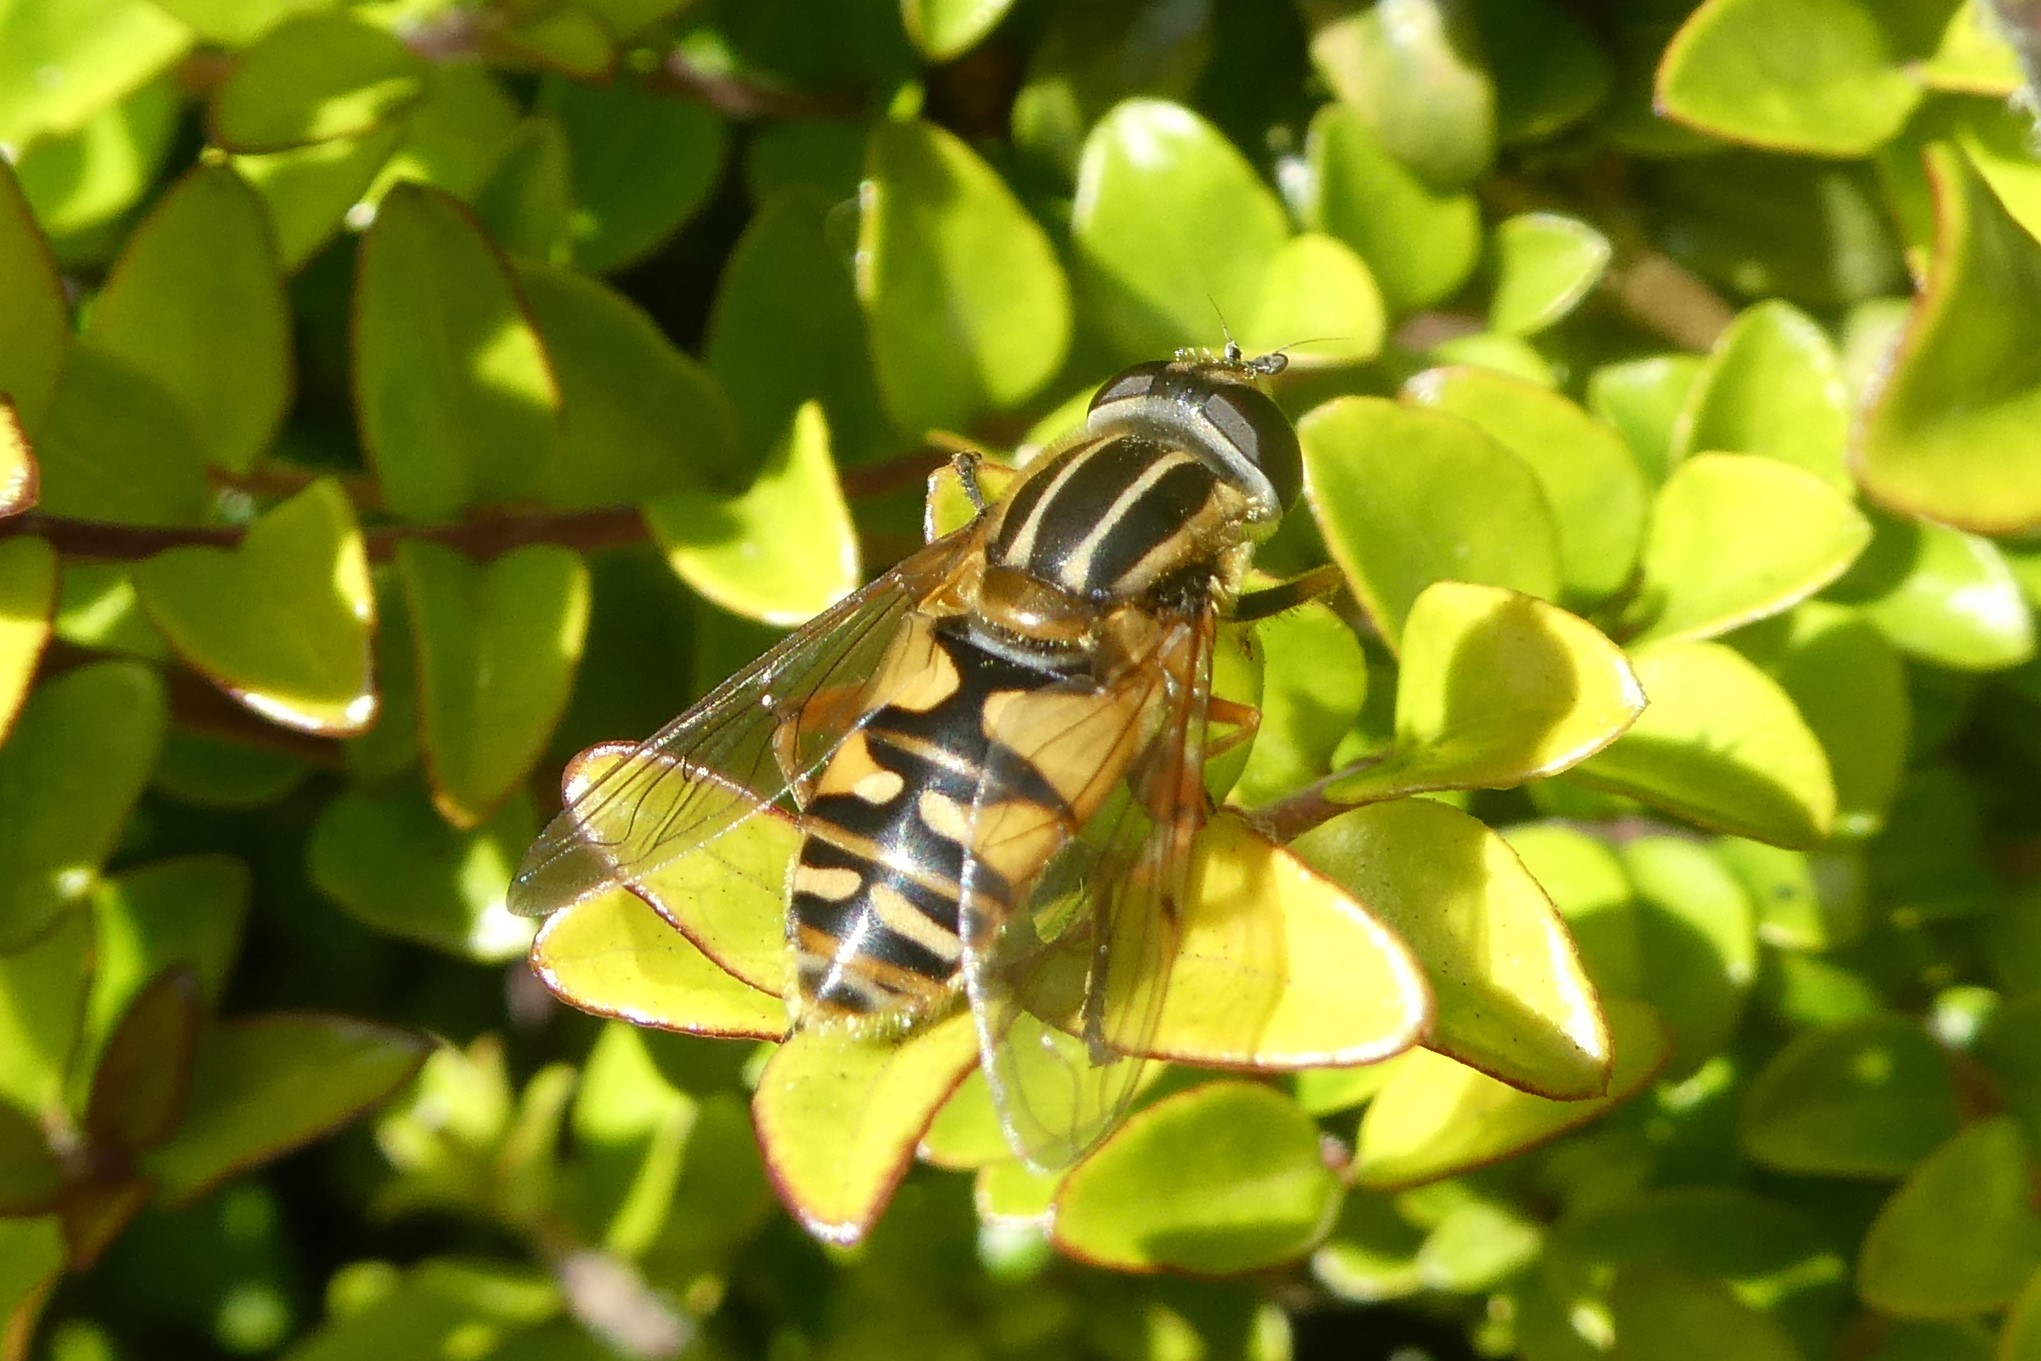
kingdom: Animalia
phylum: Arthropoda
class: Insecta
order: Diptera
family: Syrphidae
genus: Helophilus
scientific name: Helophilus pendulus
